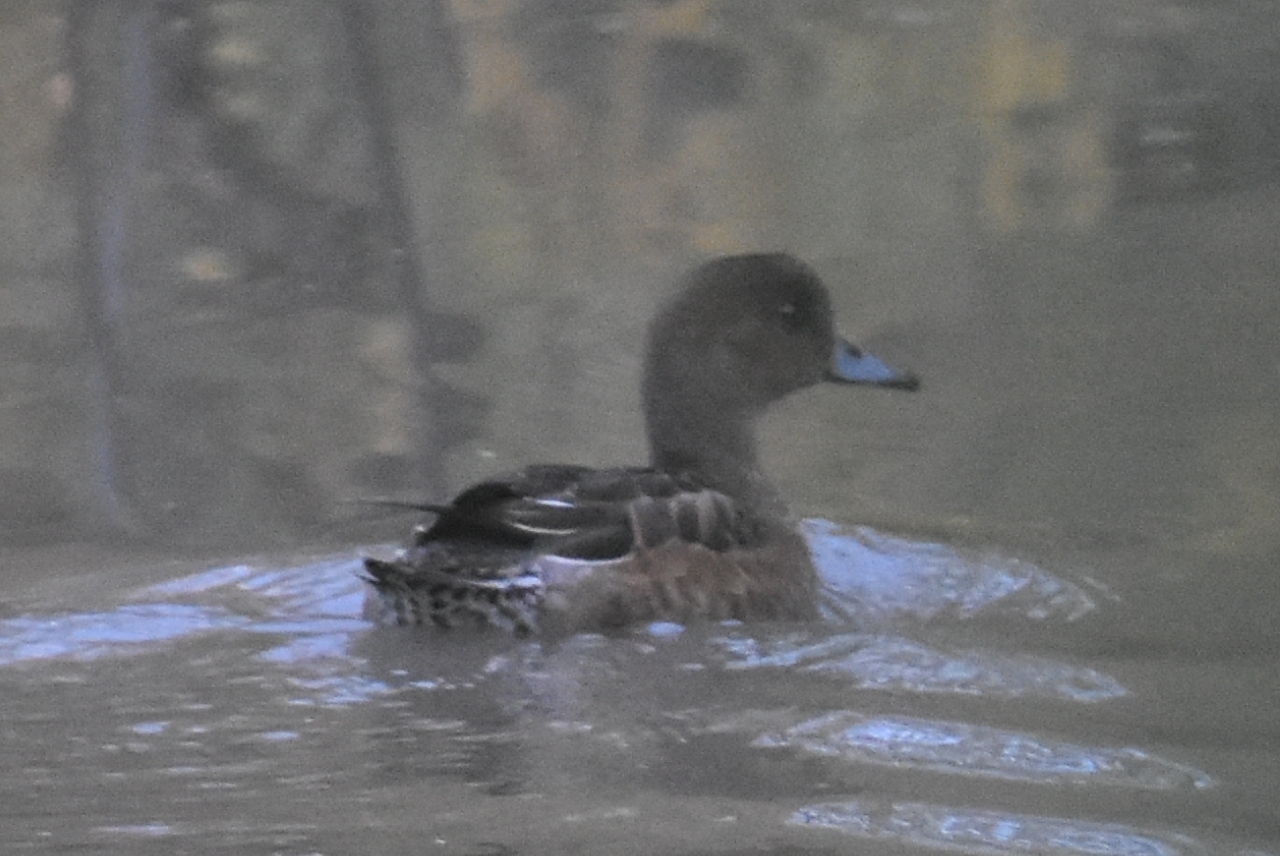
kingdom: Animalia
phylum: Chordata
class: Aves
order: Anseriformes
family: Anatidae
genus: Mareca
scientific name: Mareca penelope
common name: Eurasian wigeon
